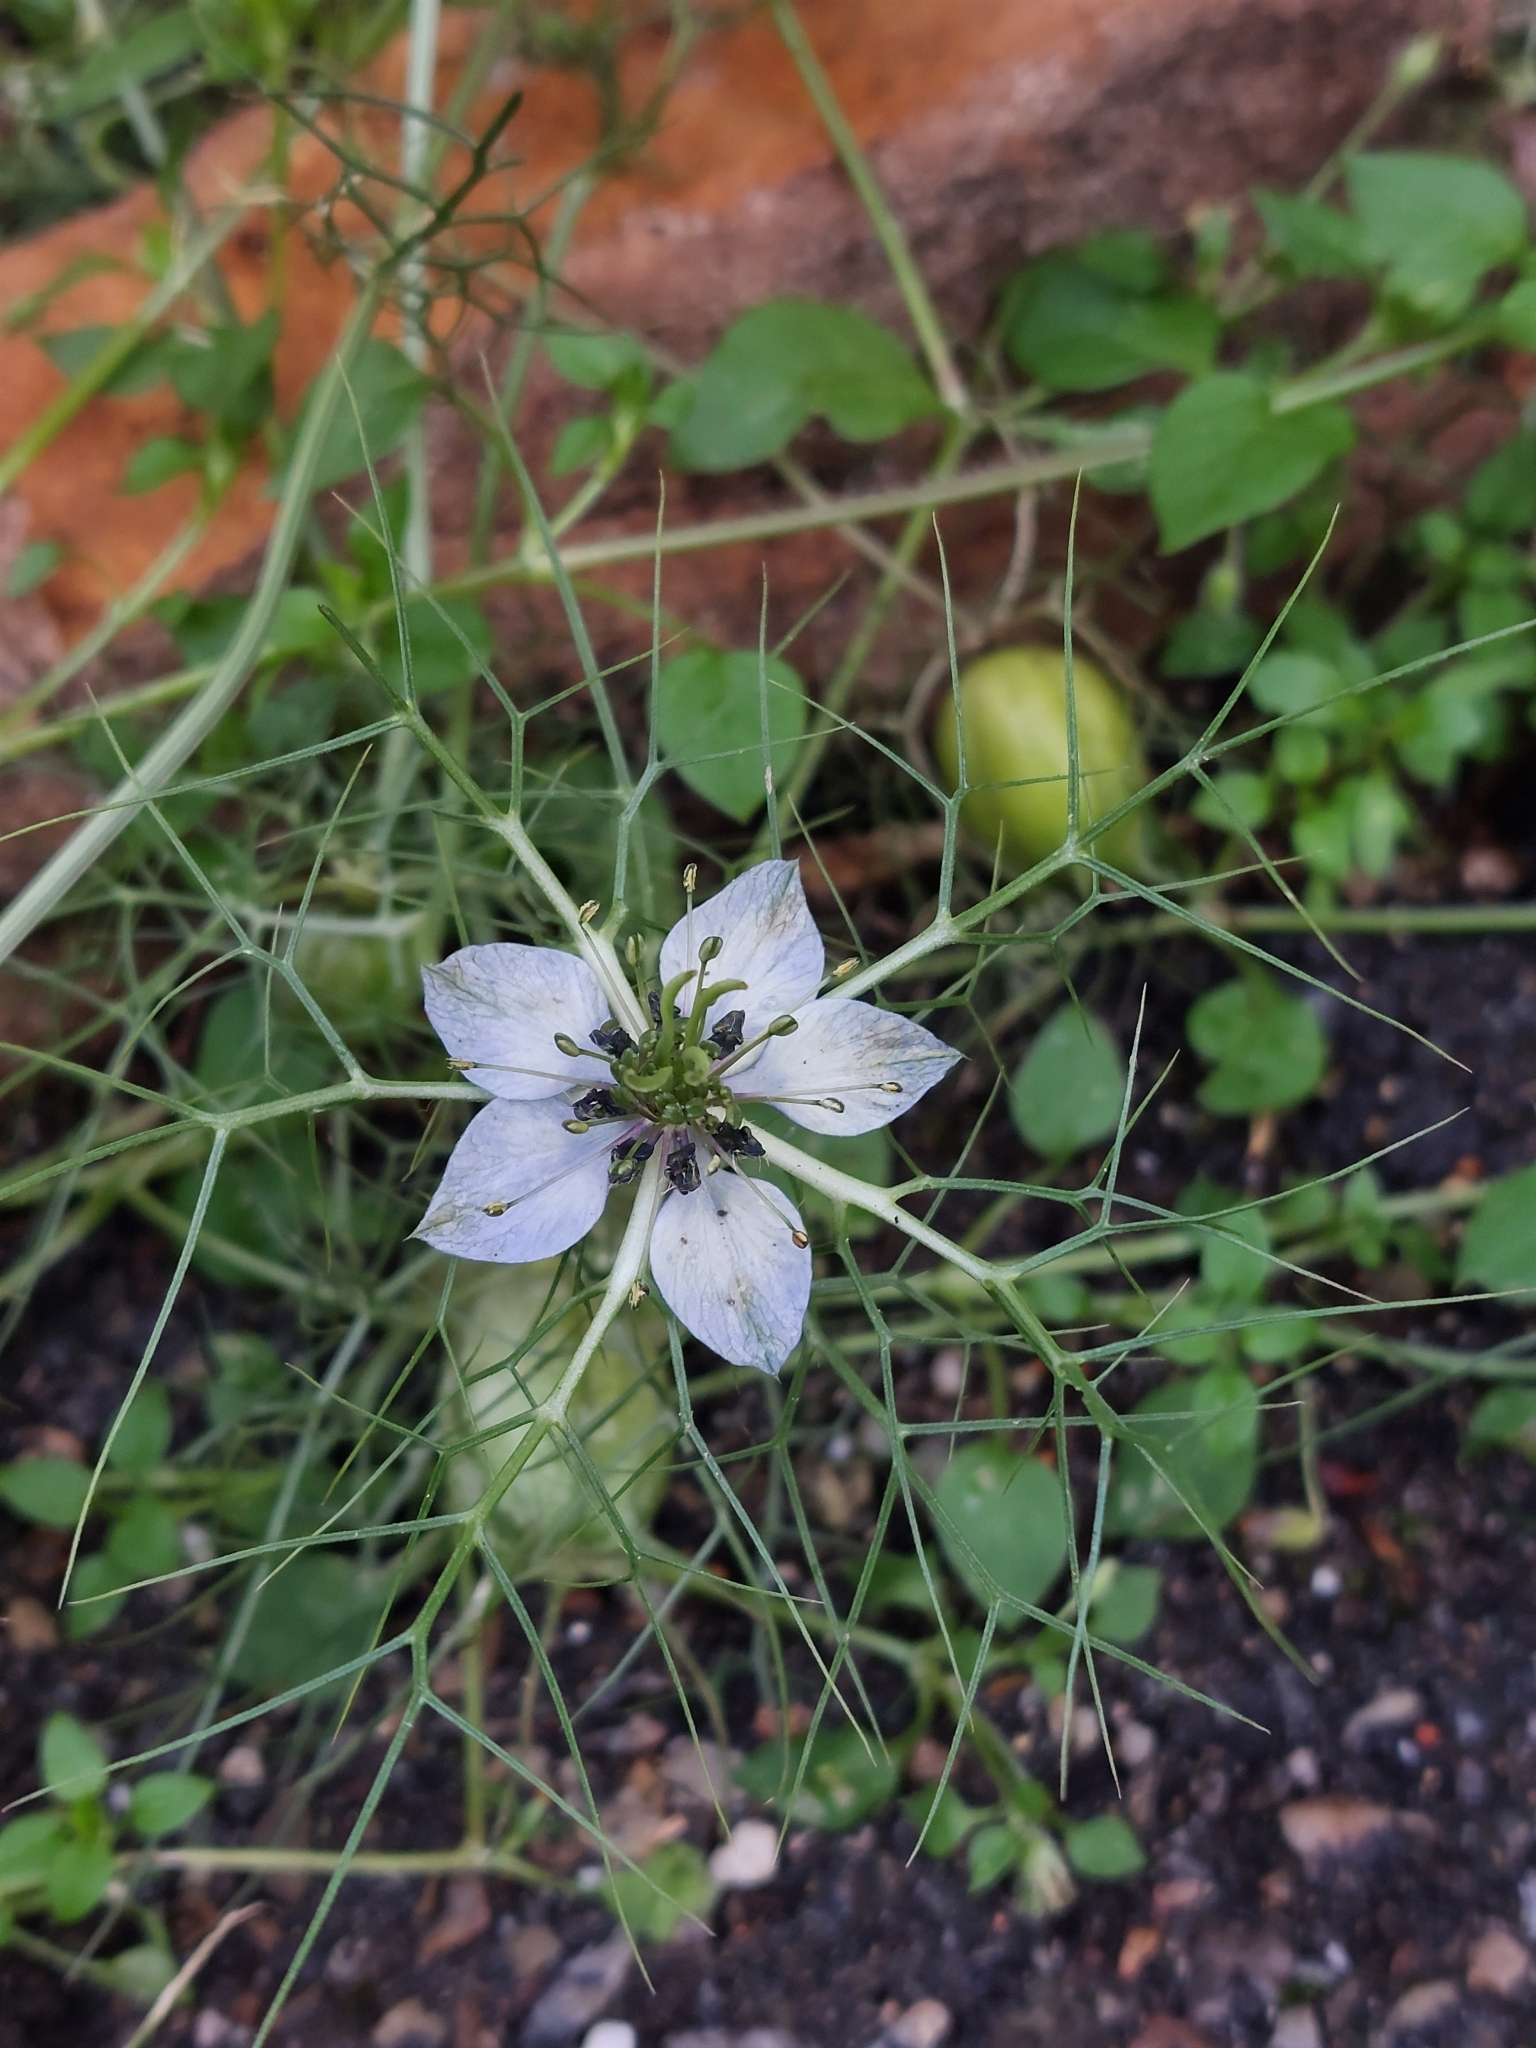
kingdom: Plantae
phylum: Tracheophyta
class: Magnoliopsida
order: Ranunculales
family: Ranunculaceae
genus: Nigella
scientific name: Nigella damascena
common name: Love-in-a-mist
